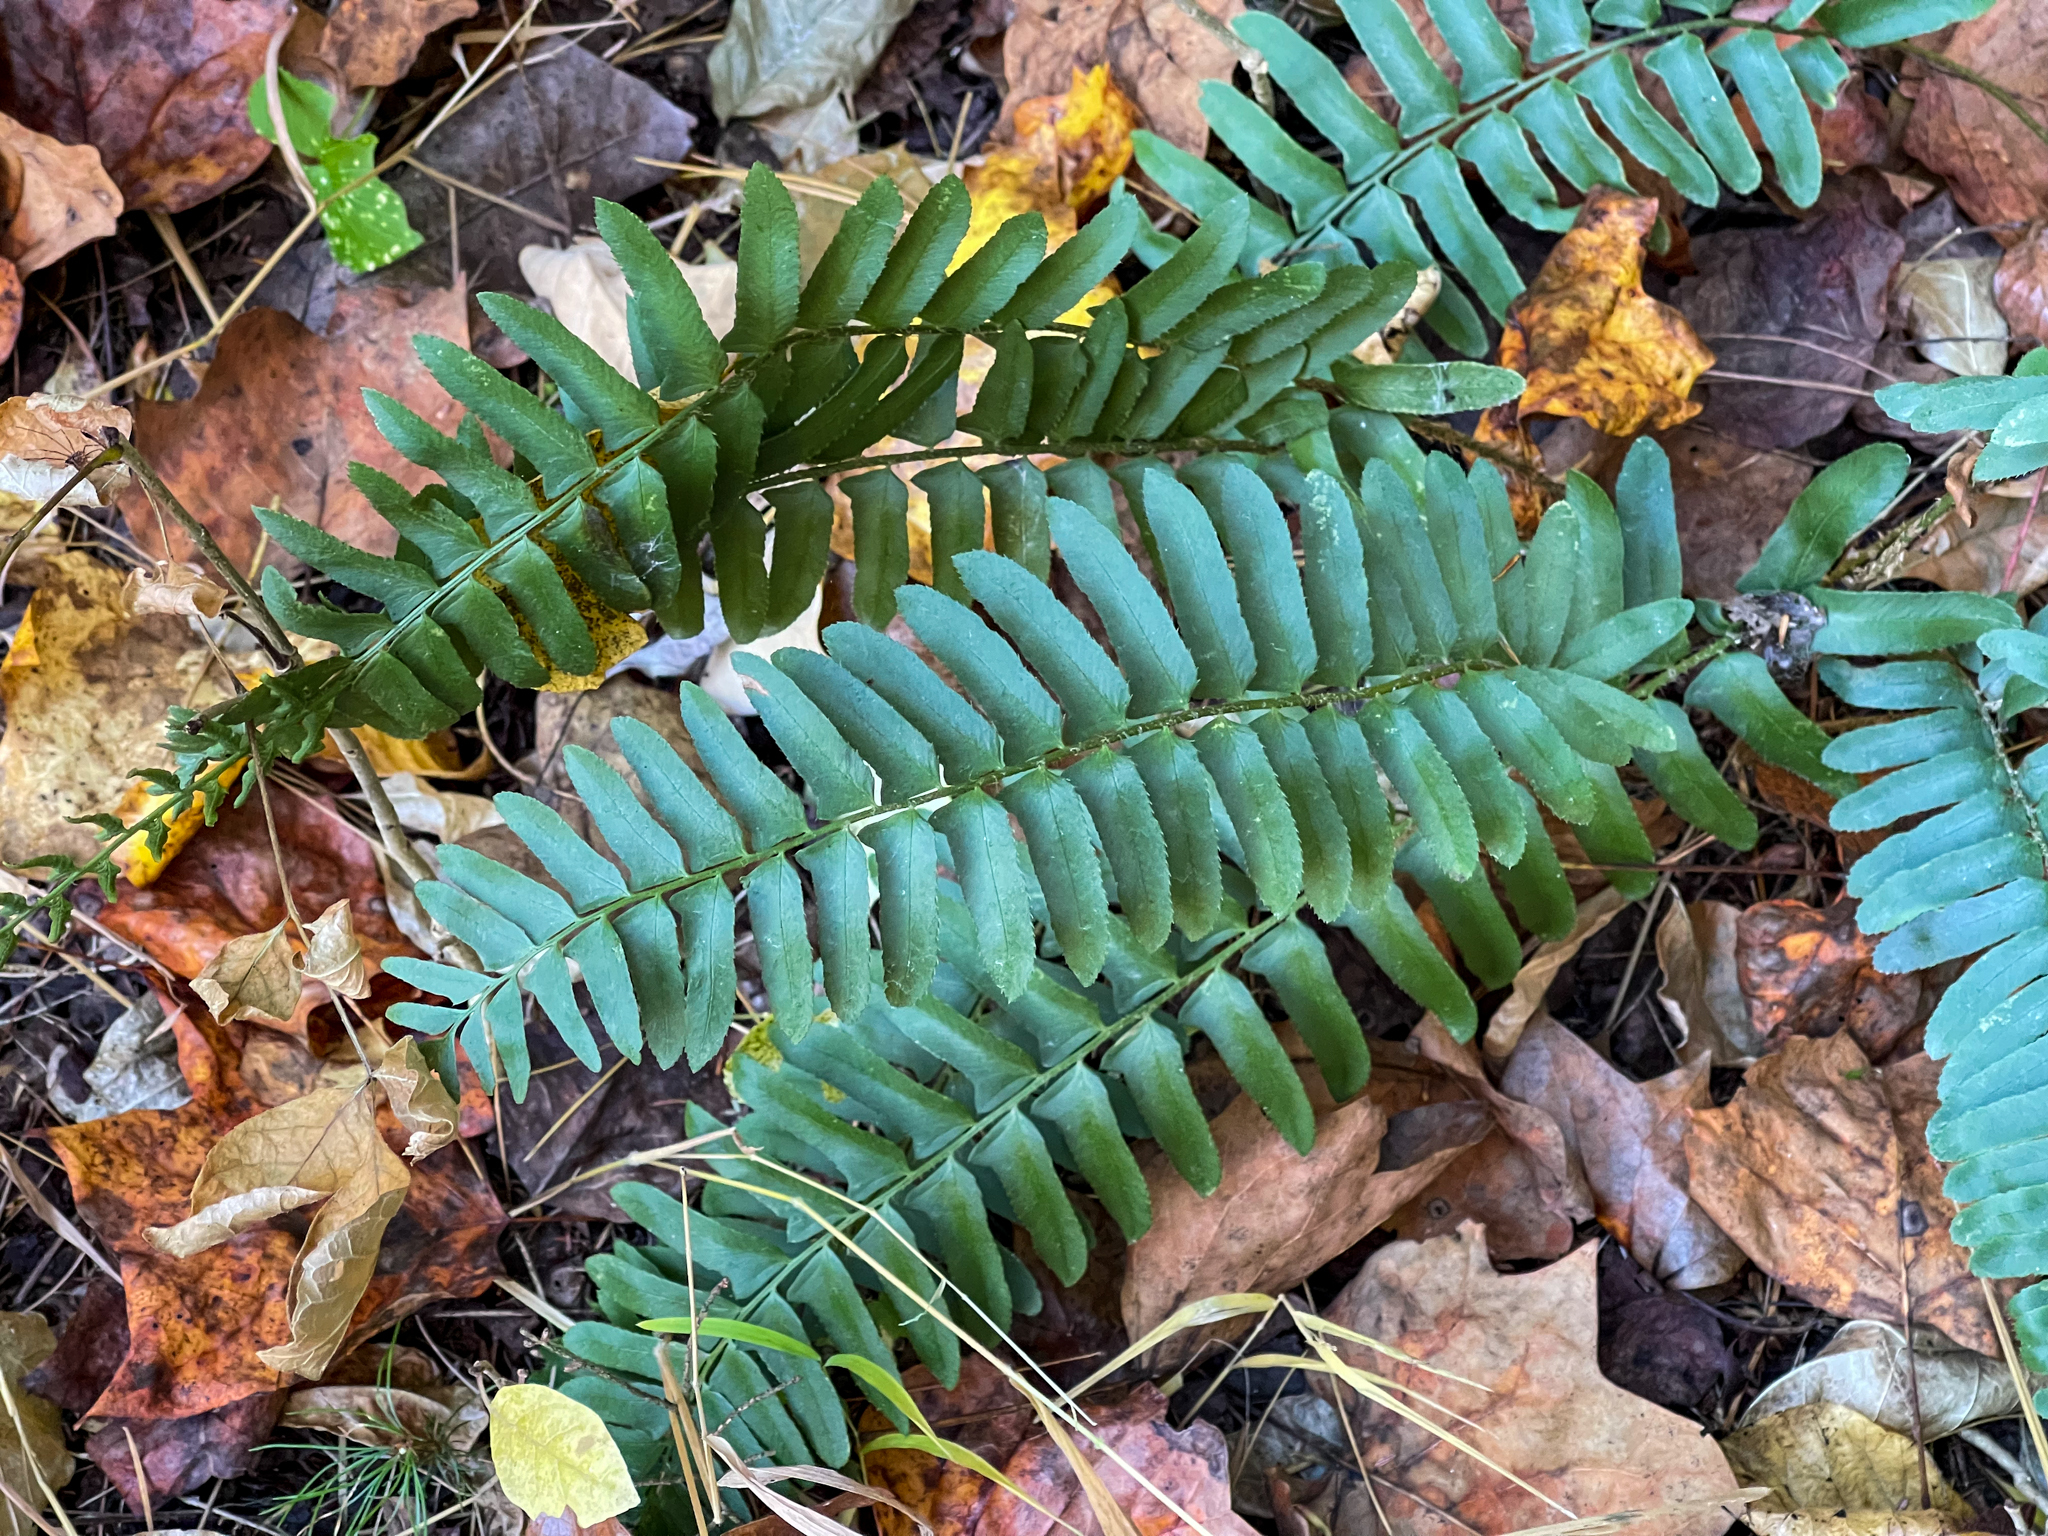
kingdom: Plantae
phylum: Tracheophyta
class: Polypodiopsida
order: Polypodiales
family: Dryopteridaceae
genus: Polystichum
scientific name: Polystichum acrostichoides
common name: Christmas fern
